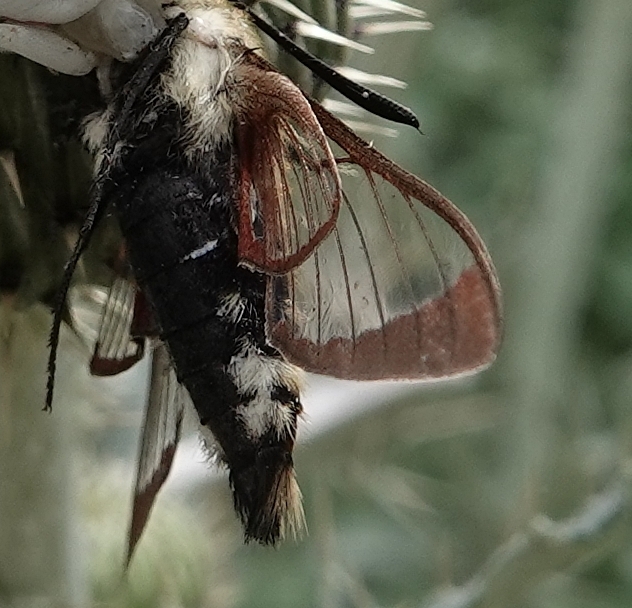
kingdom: Animalia
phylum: Arthropoda
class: Insecta
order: Lepidoptera
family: Sphingidae
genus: Hemaris
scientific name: Hemaris diffinis
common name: Bumblebee moth
